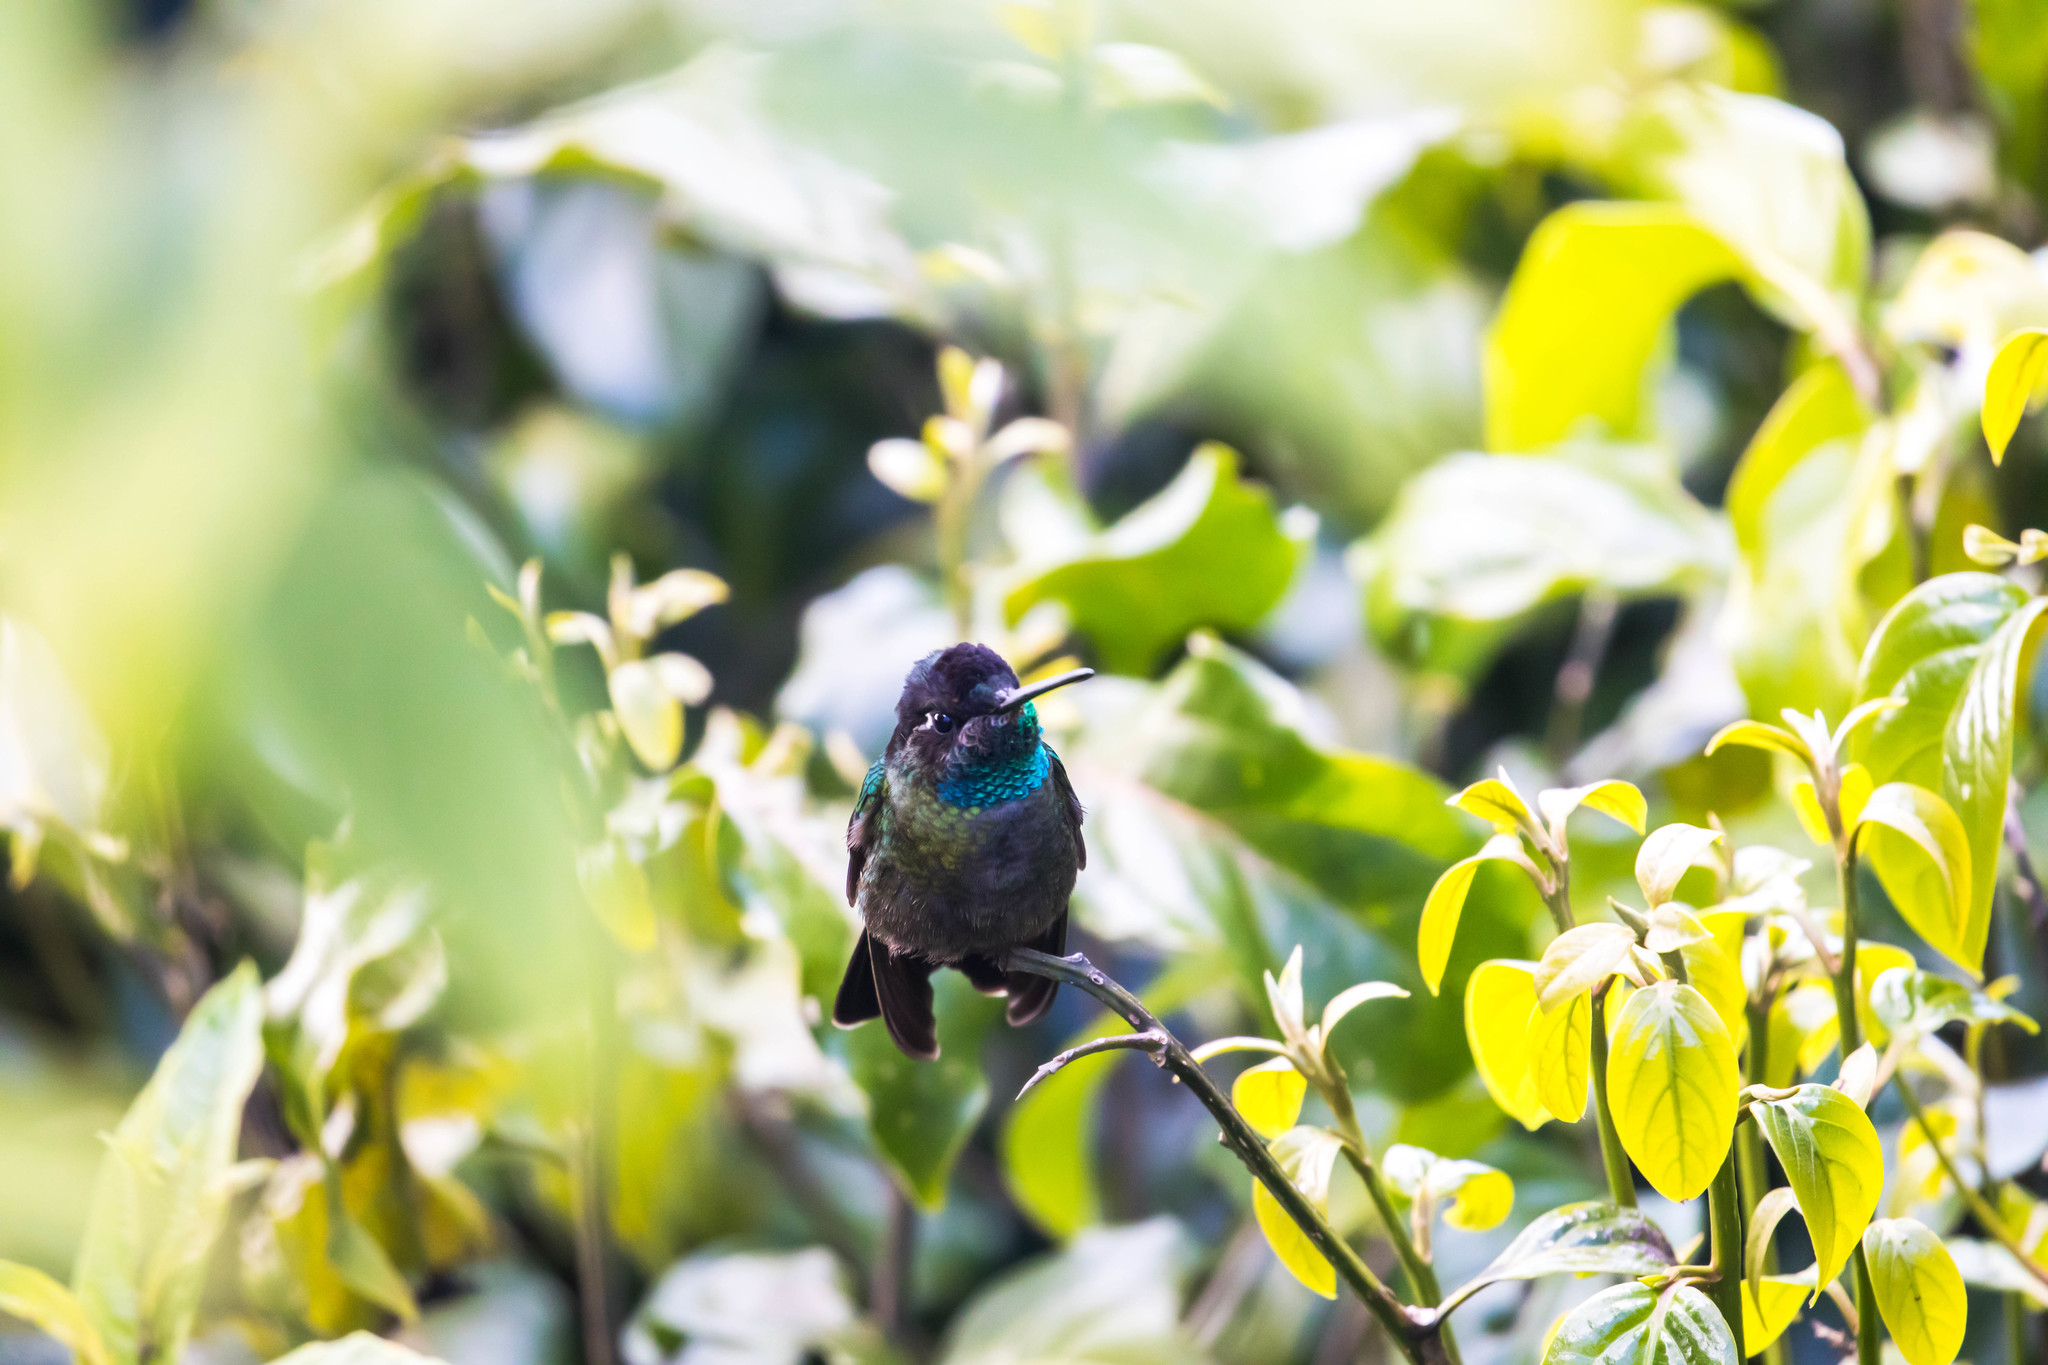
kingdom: Animalia
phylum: Chordata
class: Aves
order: Apodiformes
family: Trochilidae
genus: Eugenes
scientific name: Eugenes spectabilis
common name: Talamanca hummingbird
